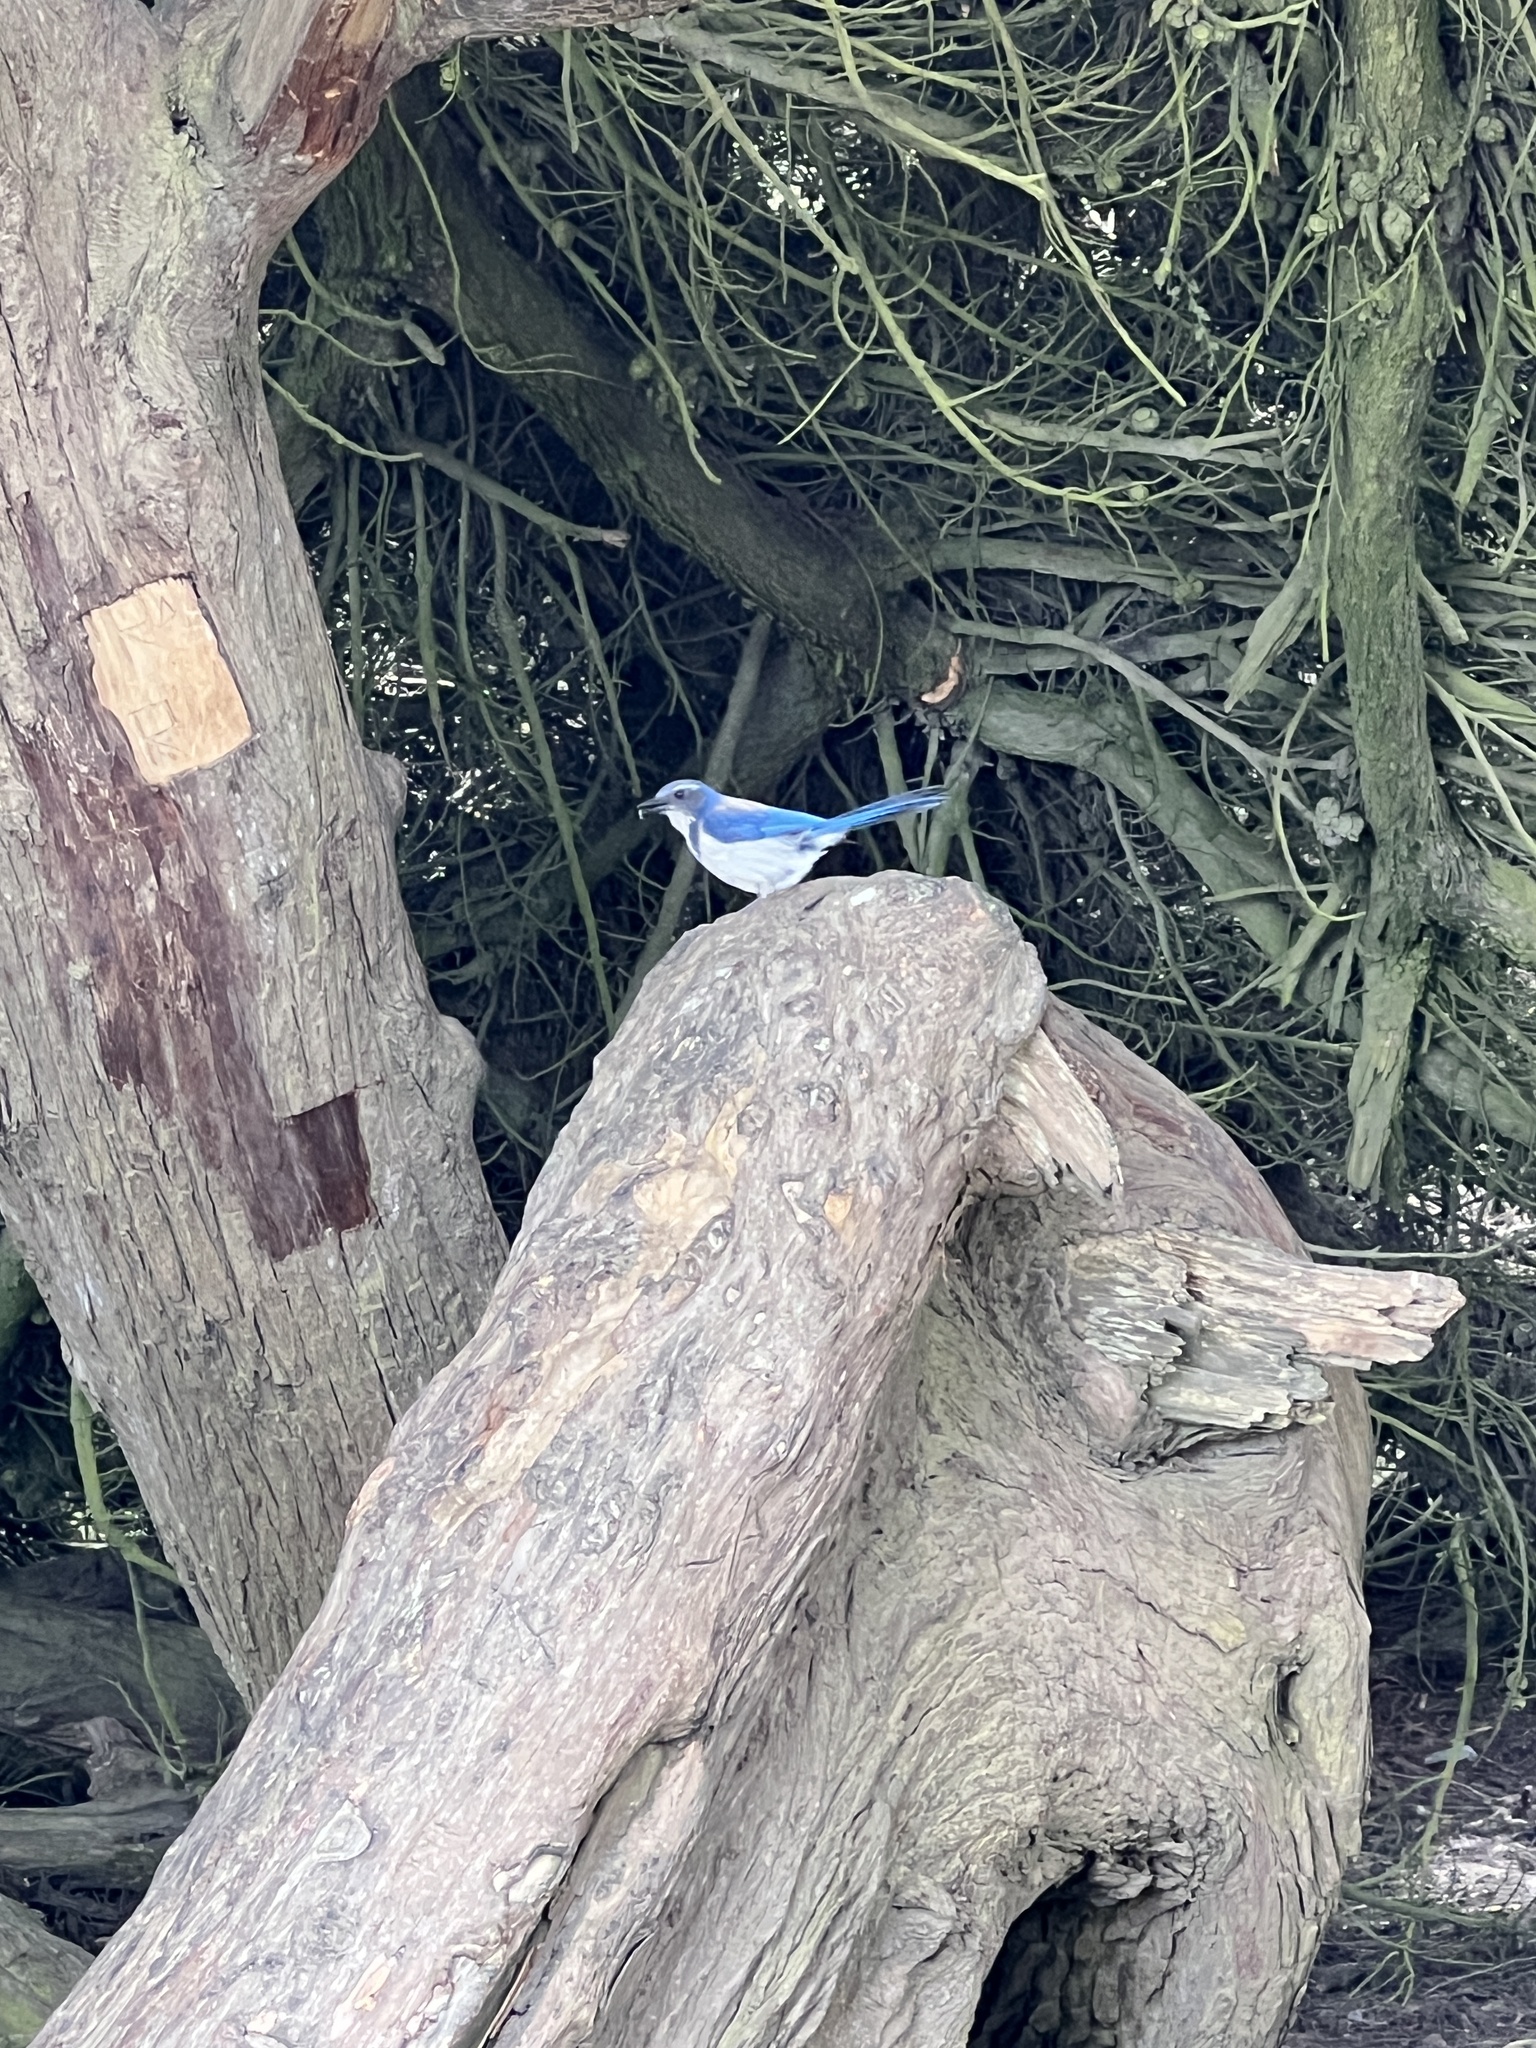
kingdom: Animalia
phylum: Chordata
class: Aves
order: Passeriformes
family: Corvidae
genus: Aphelocoma
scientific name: Aphelocoma californica
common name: California scrub-jay
